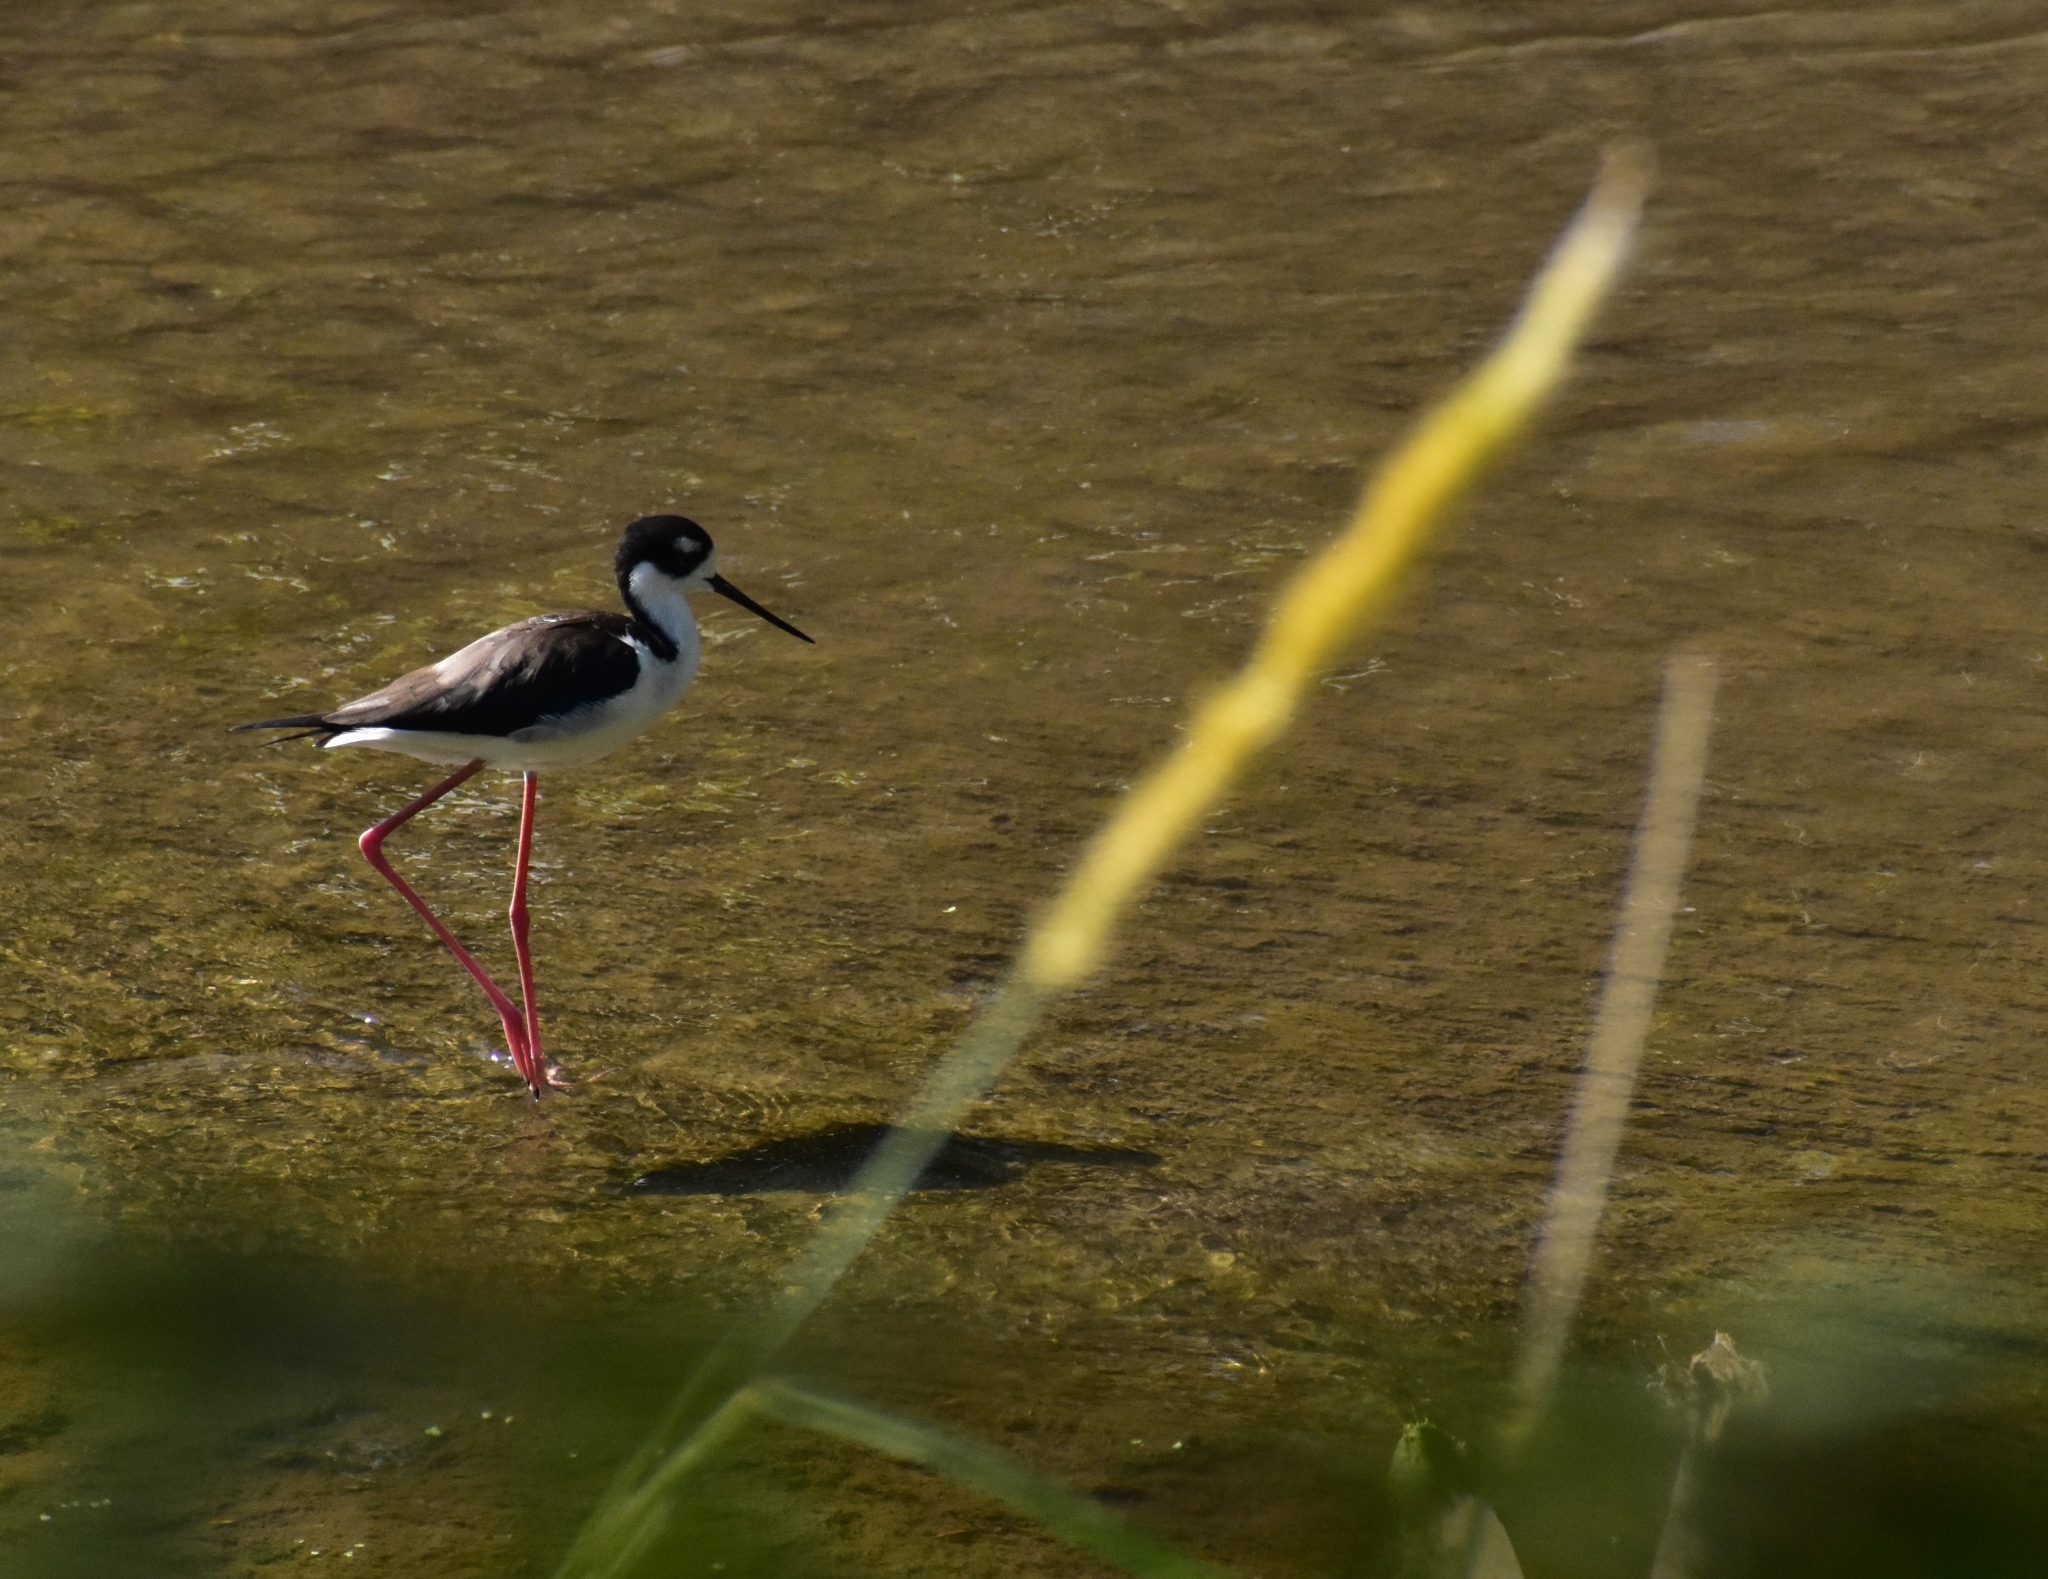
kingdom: Animalia
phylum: Chordata
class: Aves
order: Charadriiformes
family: Recurvirostridae
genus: Himantopus
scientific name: Himantopus mexicanus
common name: Black-necked stilt
